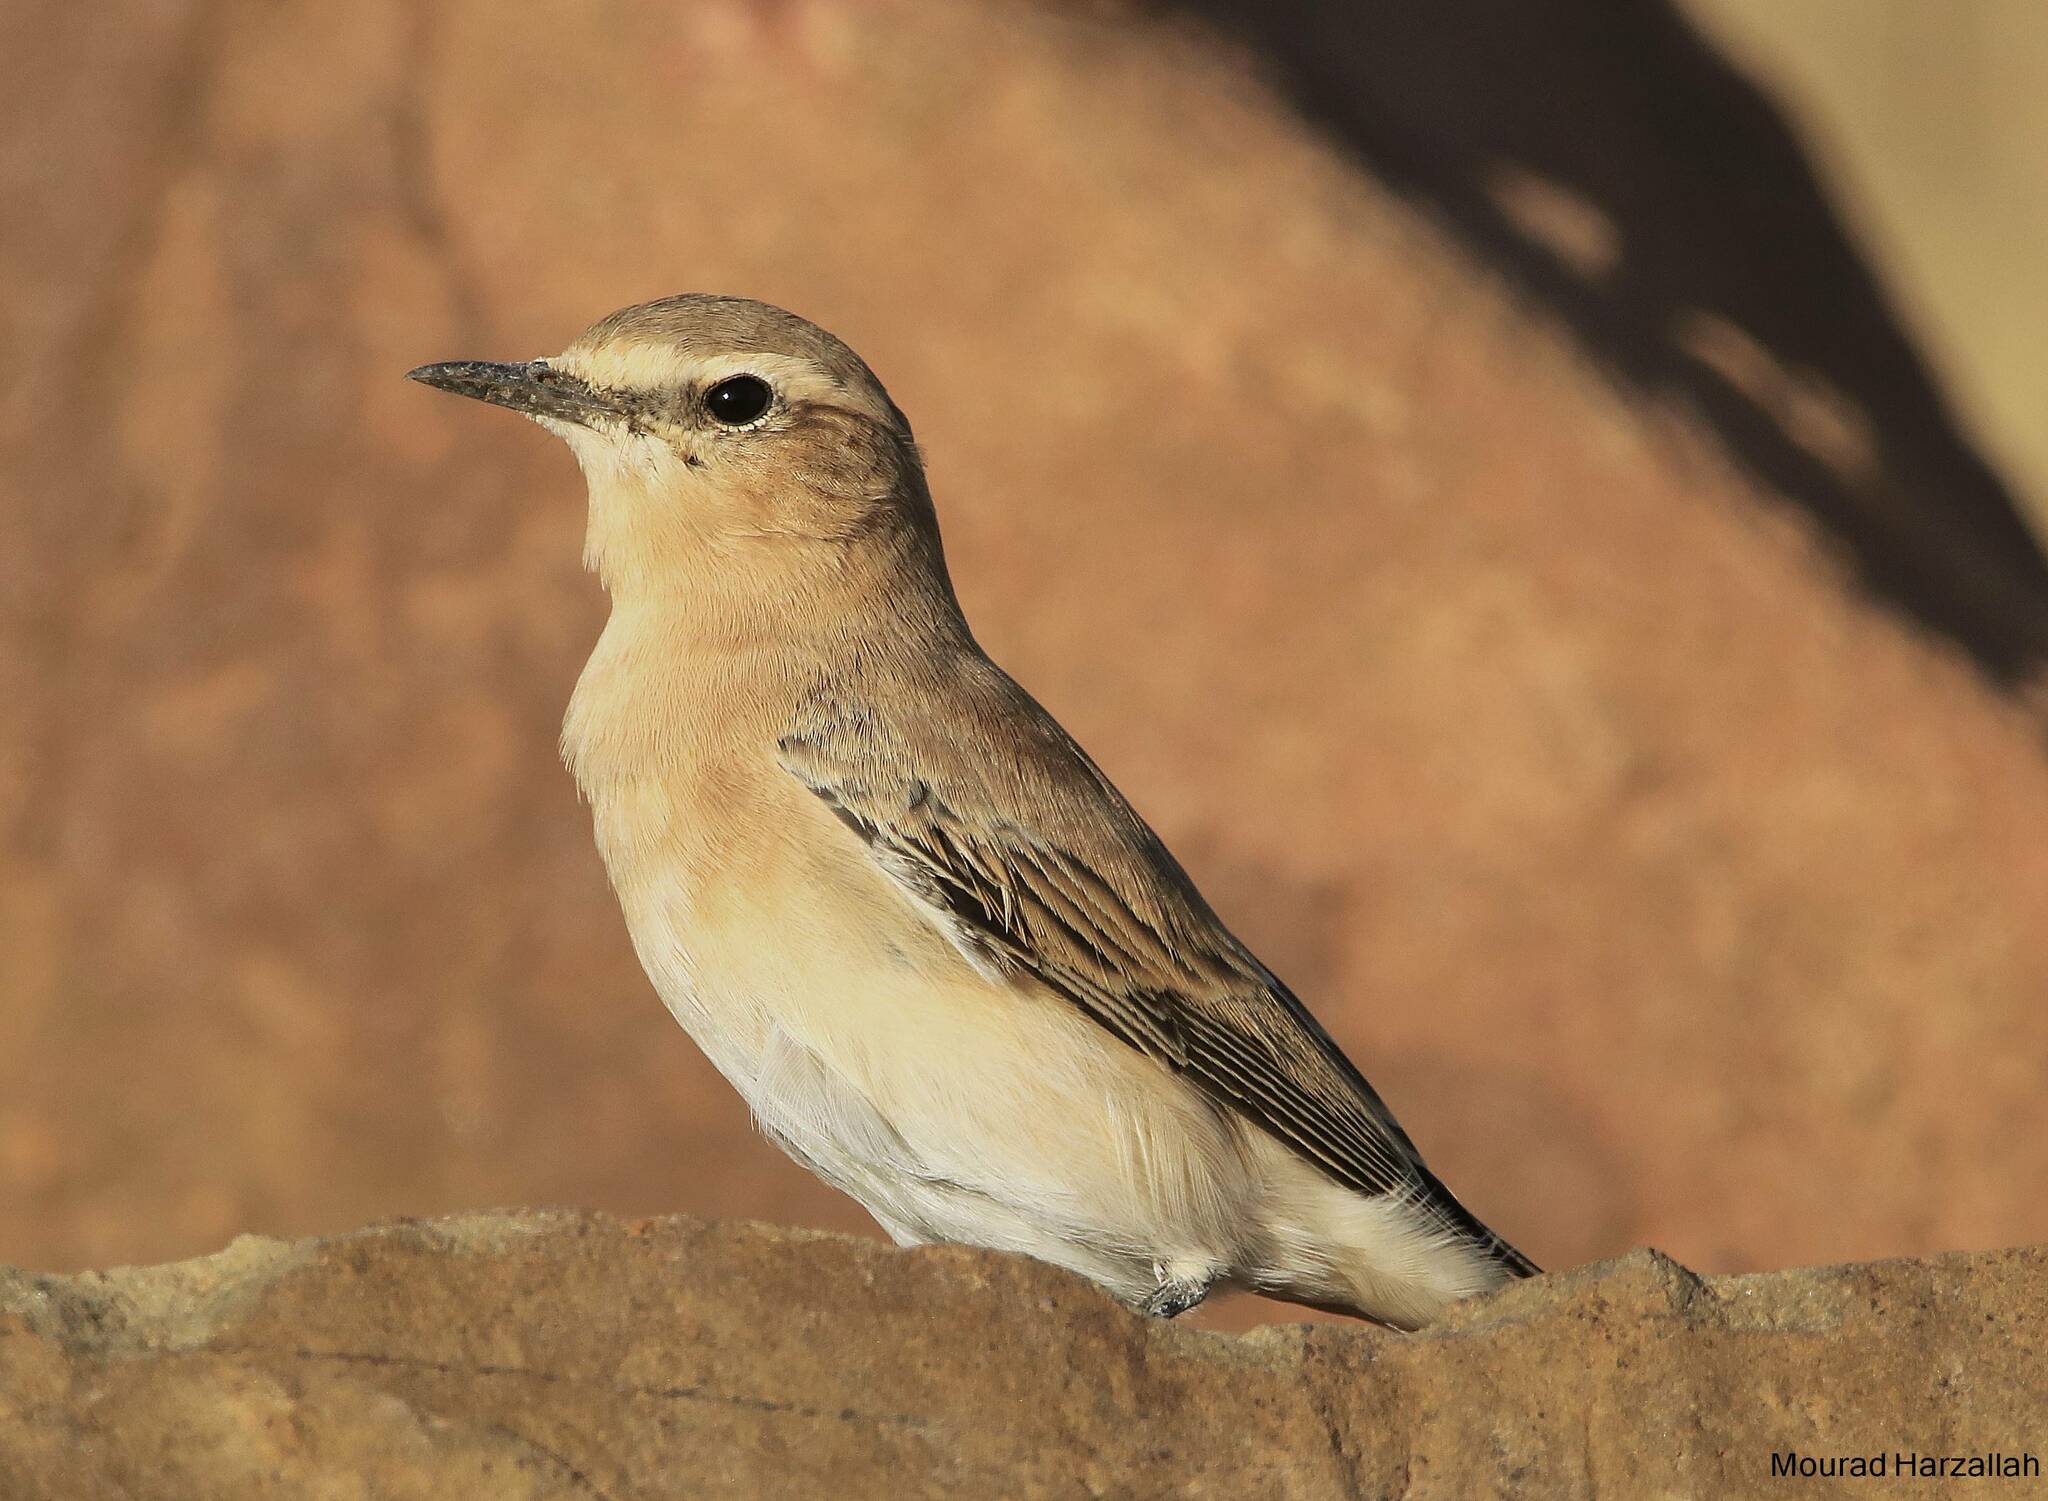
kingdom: Animalia
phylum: Chordata
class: Aves
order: Passeriformes
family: Muscicapidae
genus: Oenanthe
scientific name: Oenanthe isabellina
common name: Isabelline wheatear
